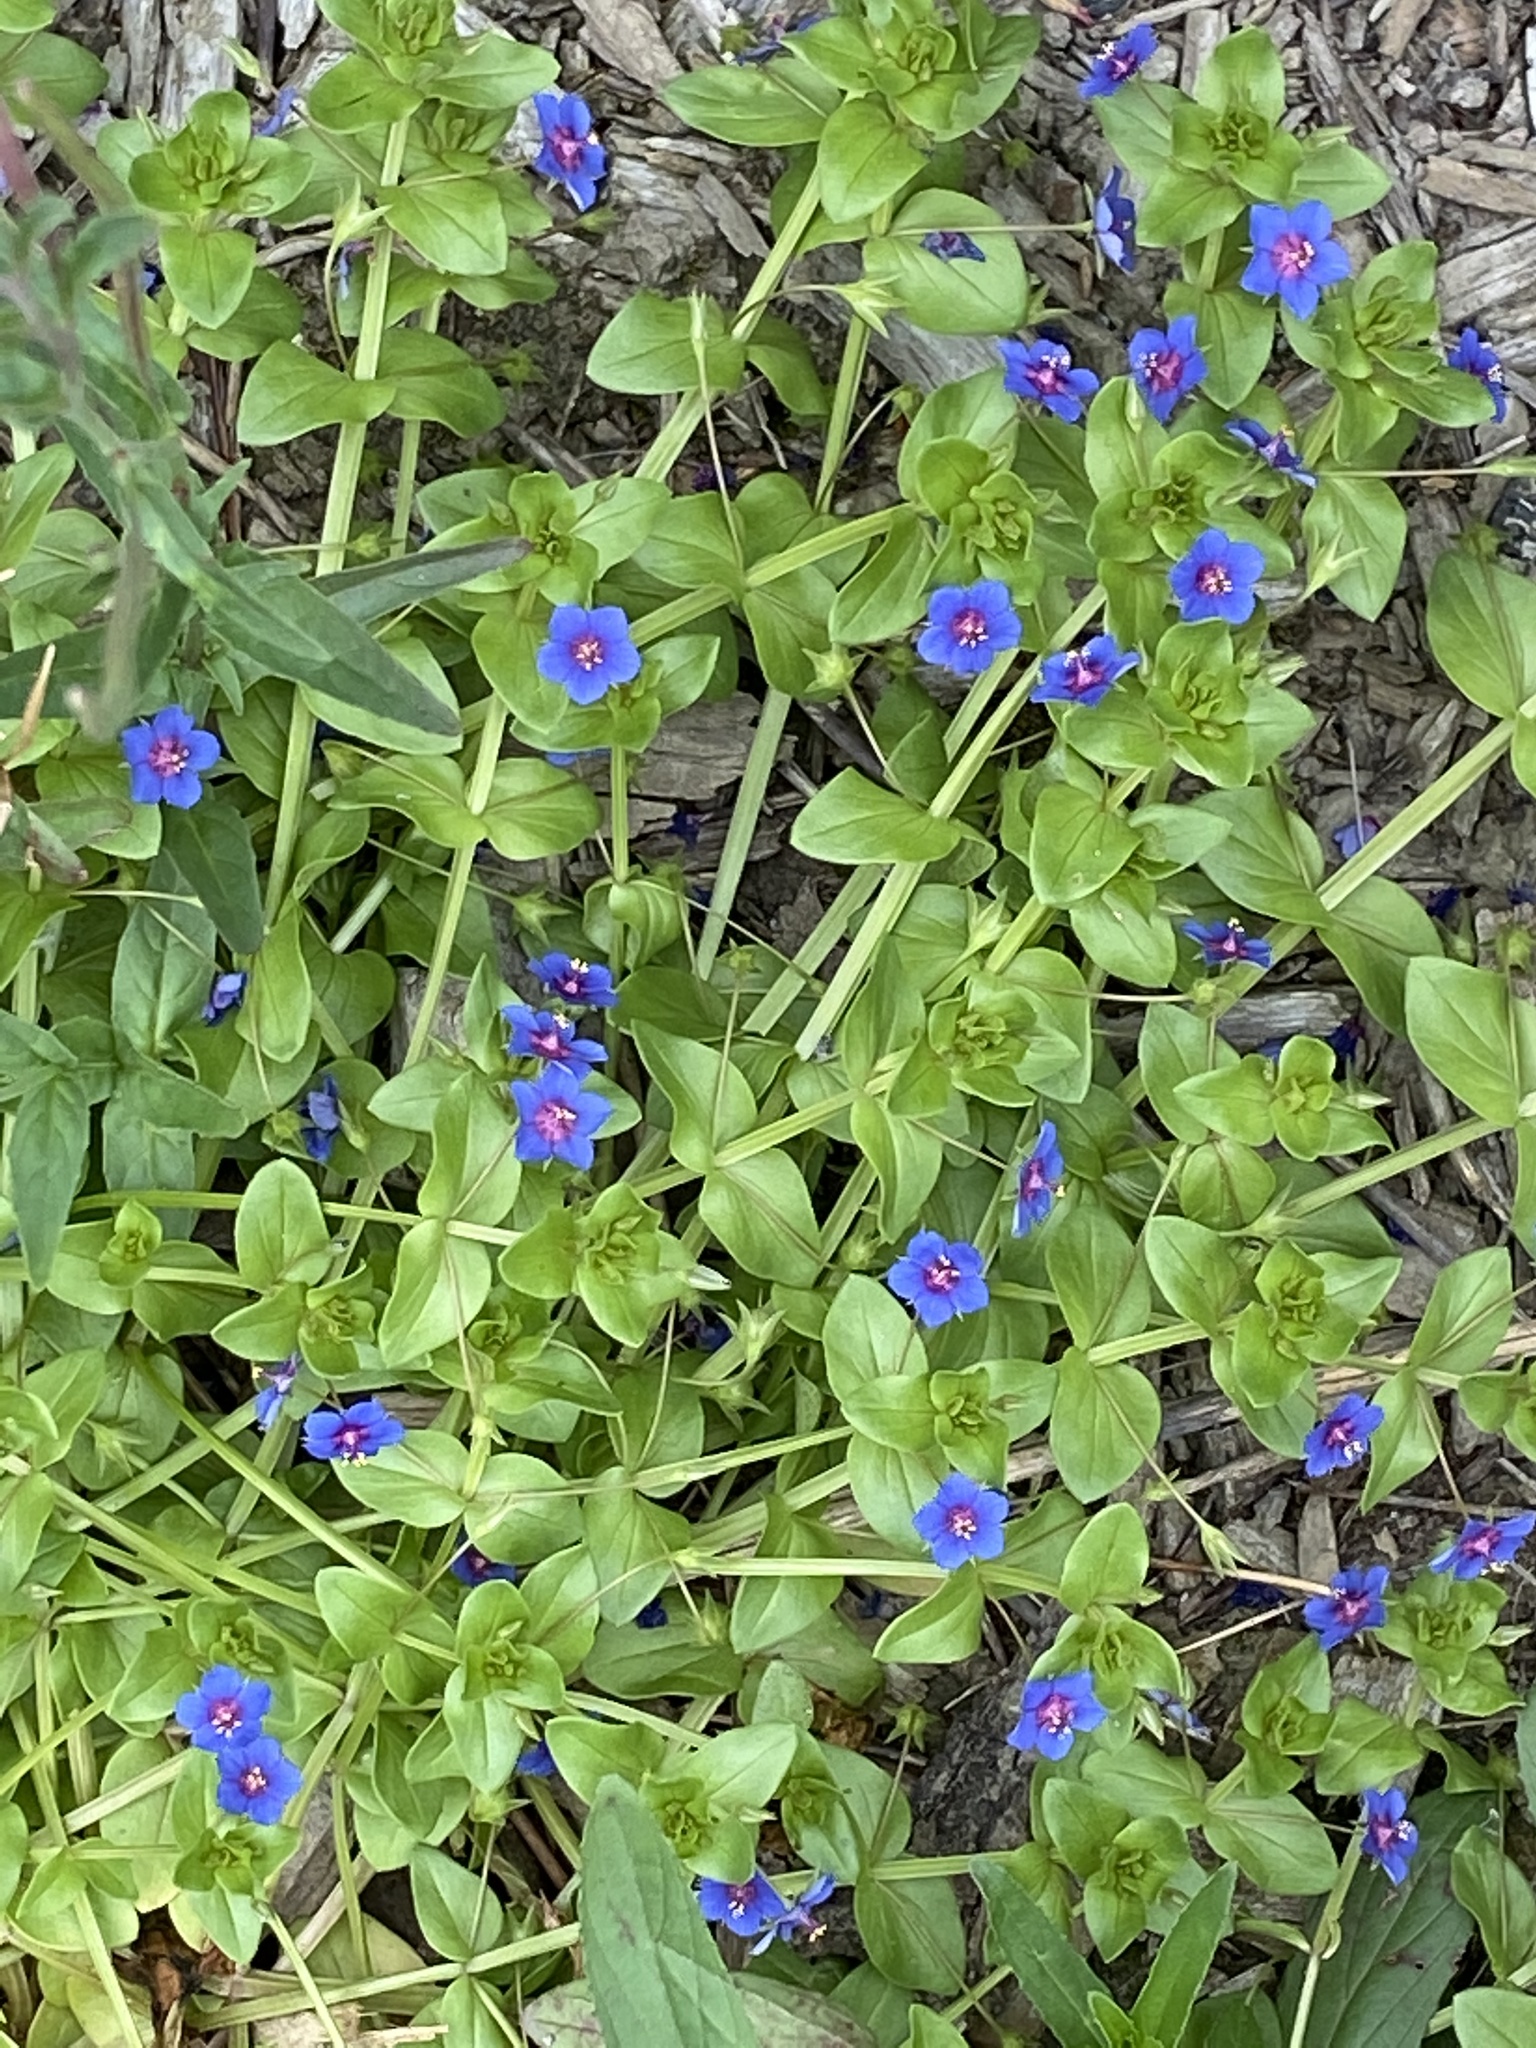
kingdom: Plantae
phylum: Tracheophyta
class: Magnoliopsida
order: Ericales
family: Primulaceae
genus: Lysimachia
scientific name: Lysimachia arvensis
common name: Scarlet pimpernel
